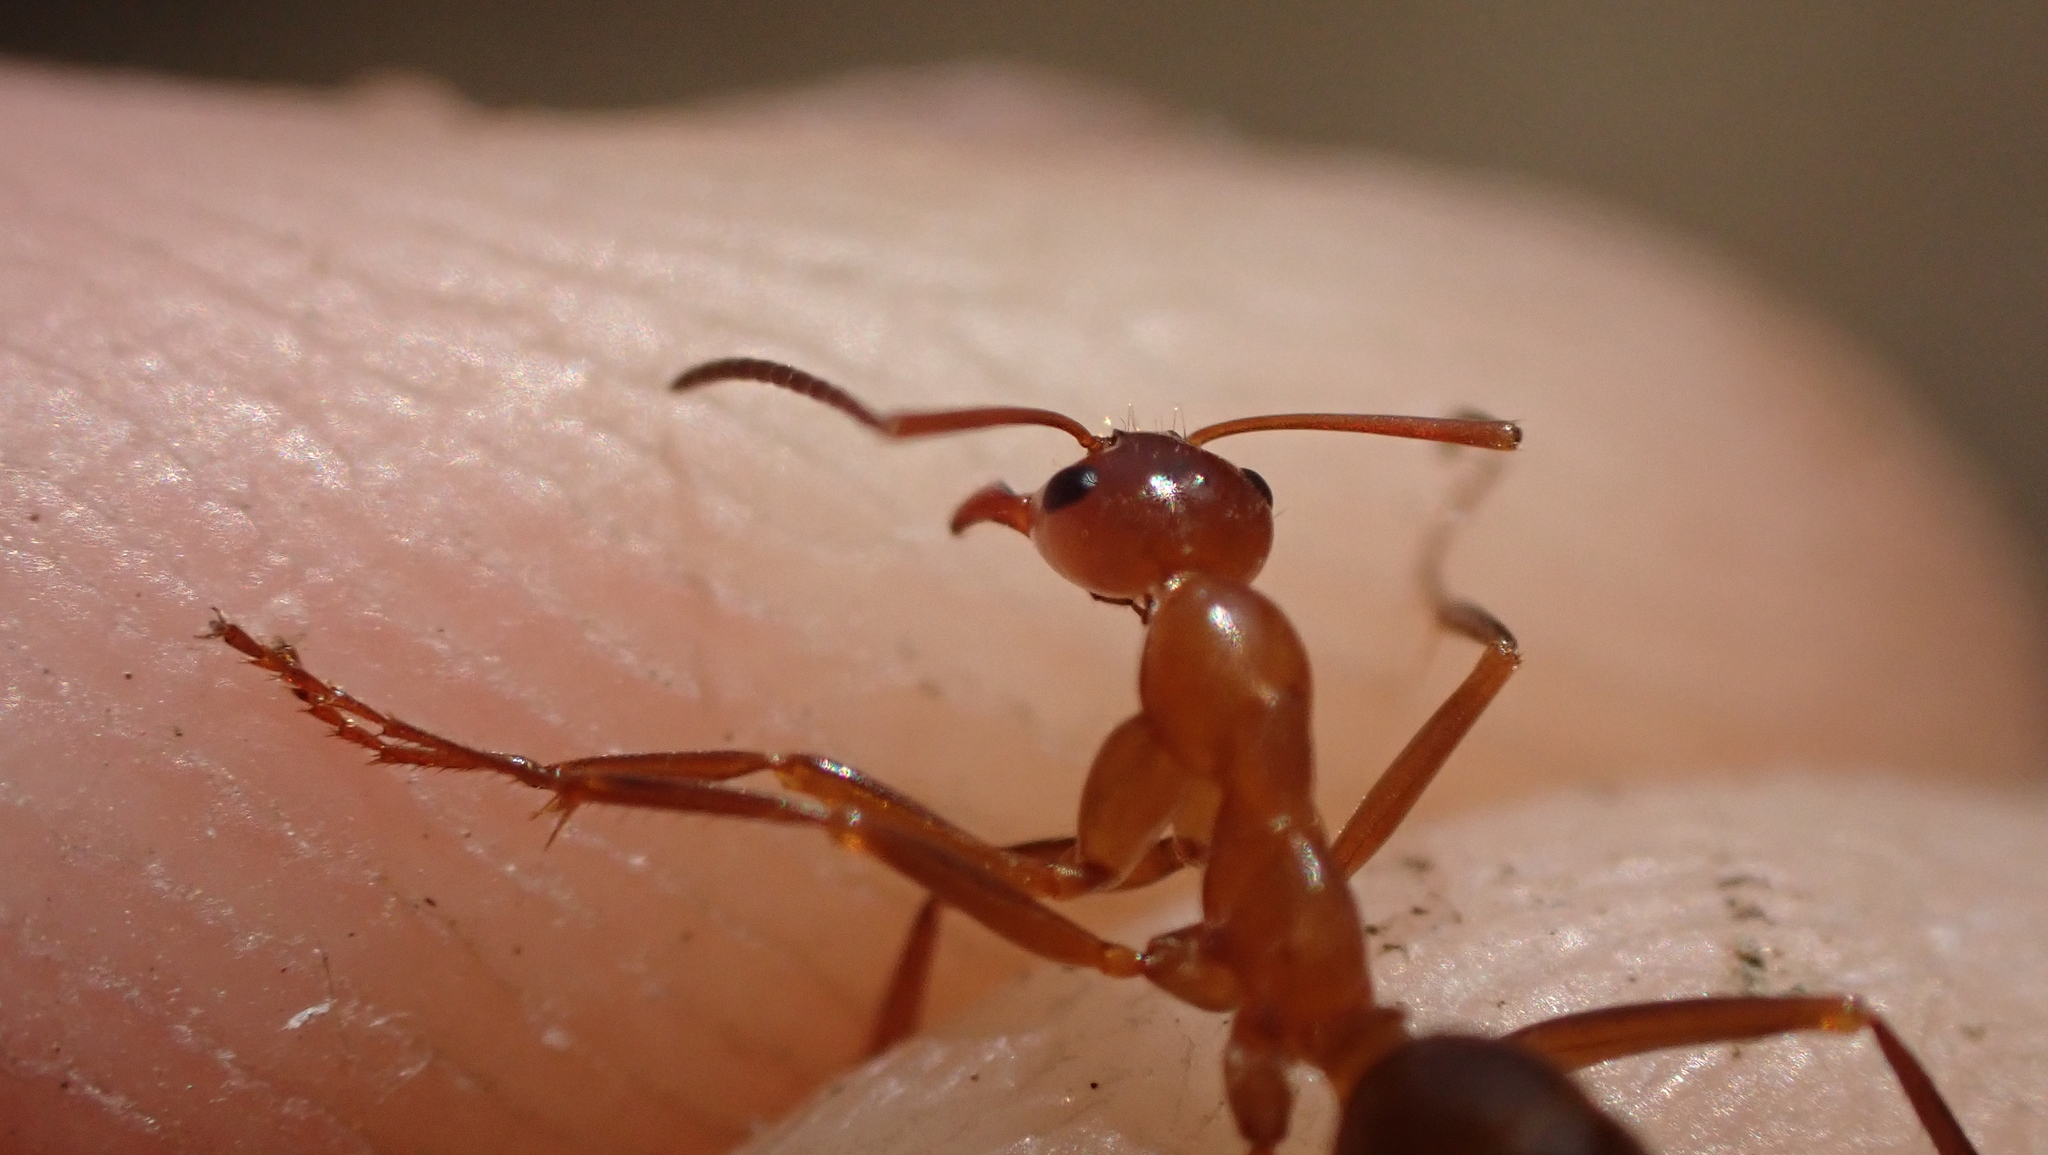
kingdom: Animalia
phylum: Arthropoda
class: Insecta
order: Hymenoptera
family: Formicidae
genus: Formica
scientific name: Formica pallidefulva
